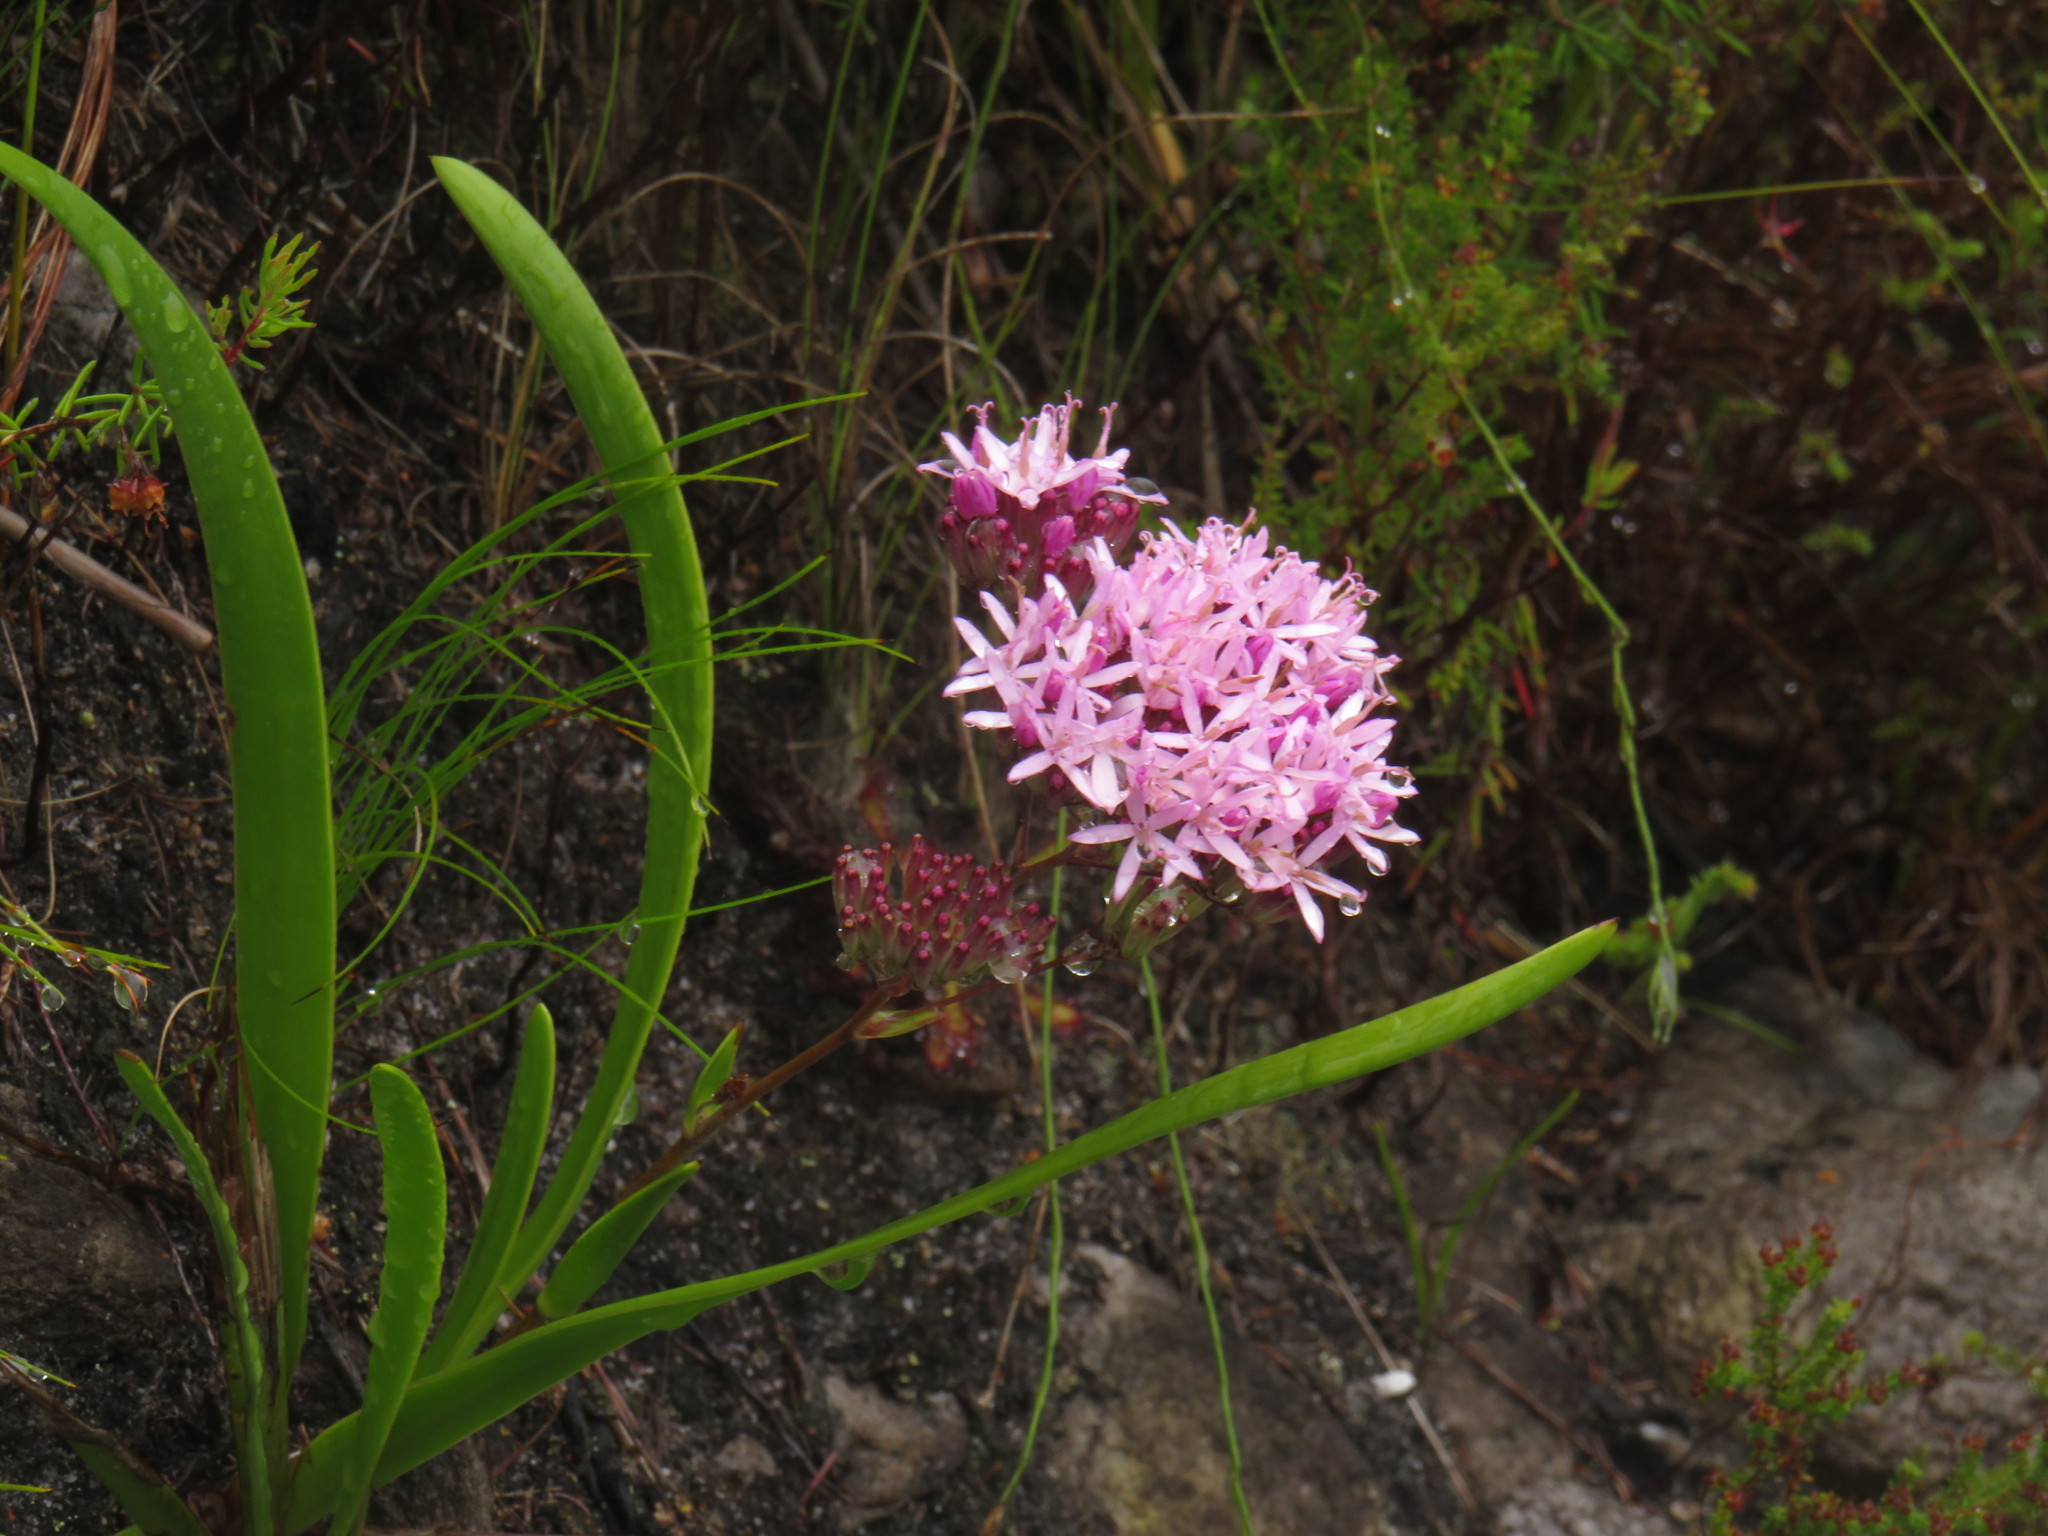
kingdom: Plantae
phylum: Tracheophyta
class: Magnoliopsida
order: Asterales
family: Asteraceae
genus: Corymbium
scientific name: Corymbium glabrum
